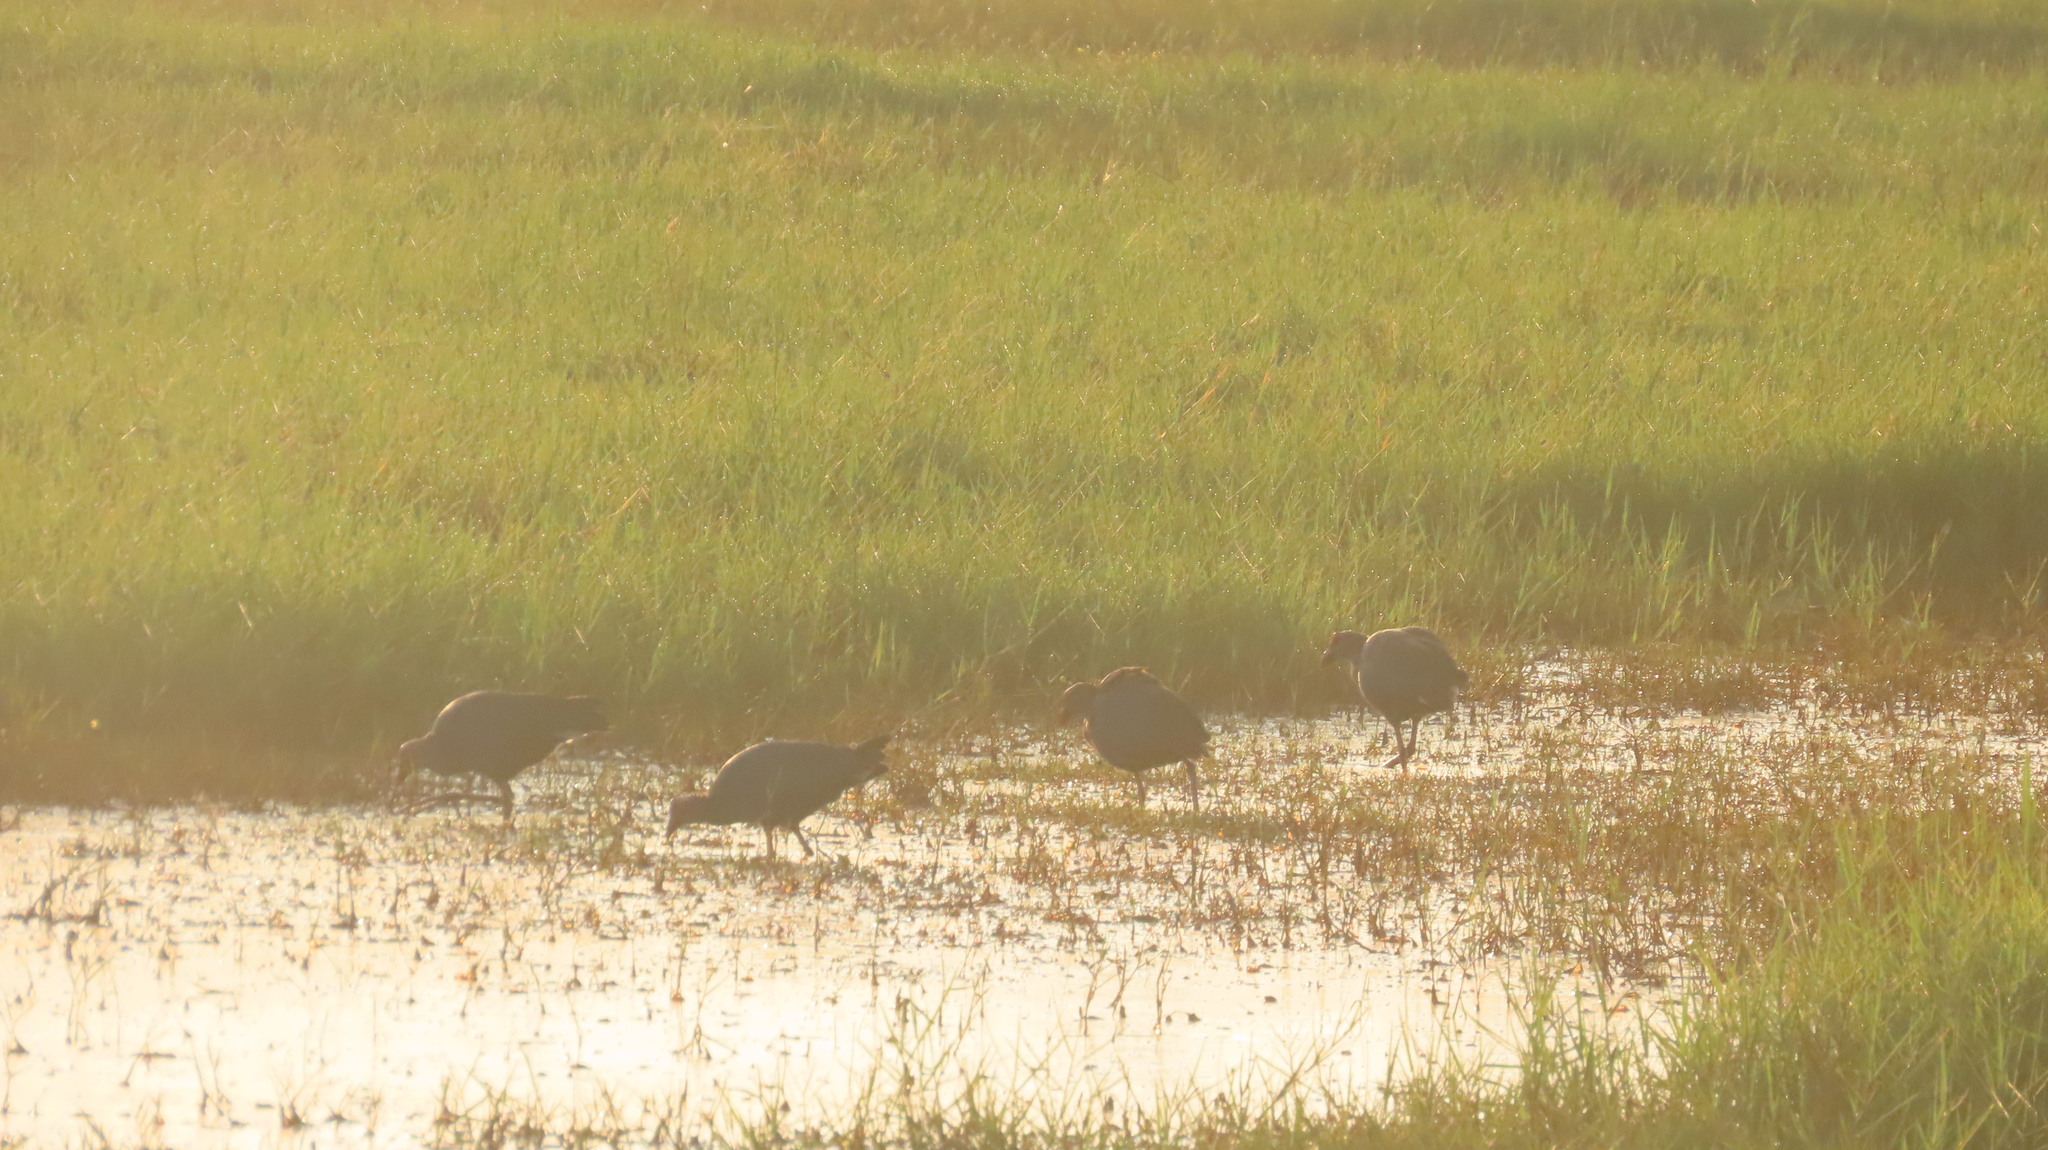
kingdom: Animalia
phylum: Chordata
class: Aves
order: Gruiformes
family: Rallidae
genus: Porphyrio
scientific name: Porphyrio porphyrio
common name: Purple swamphen
